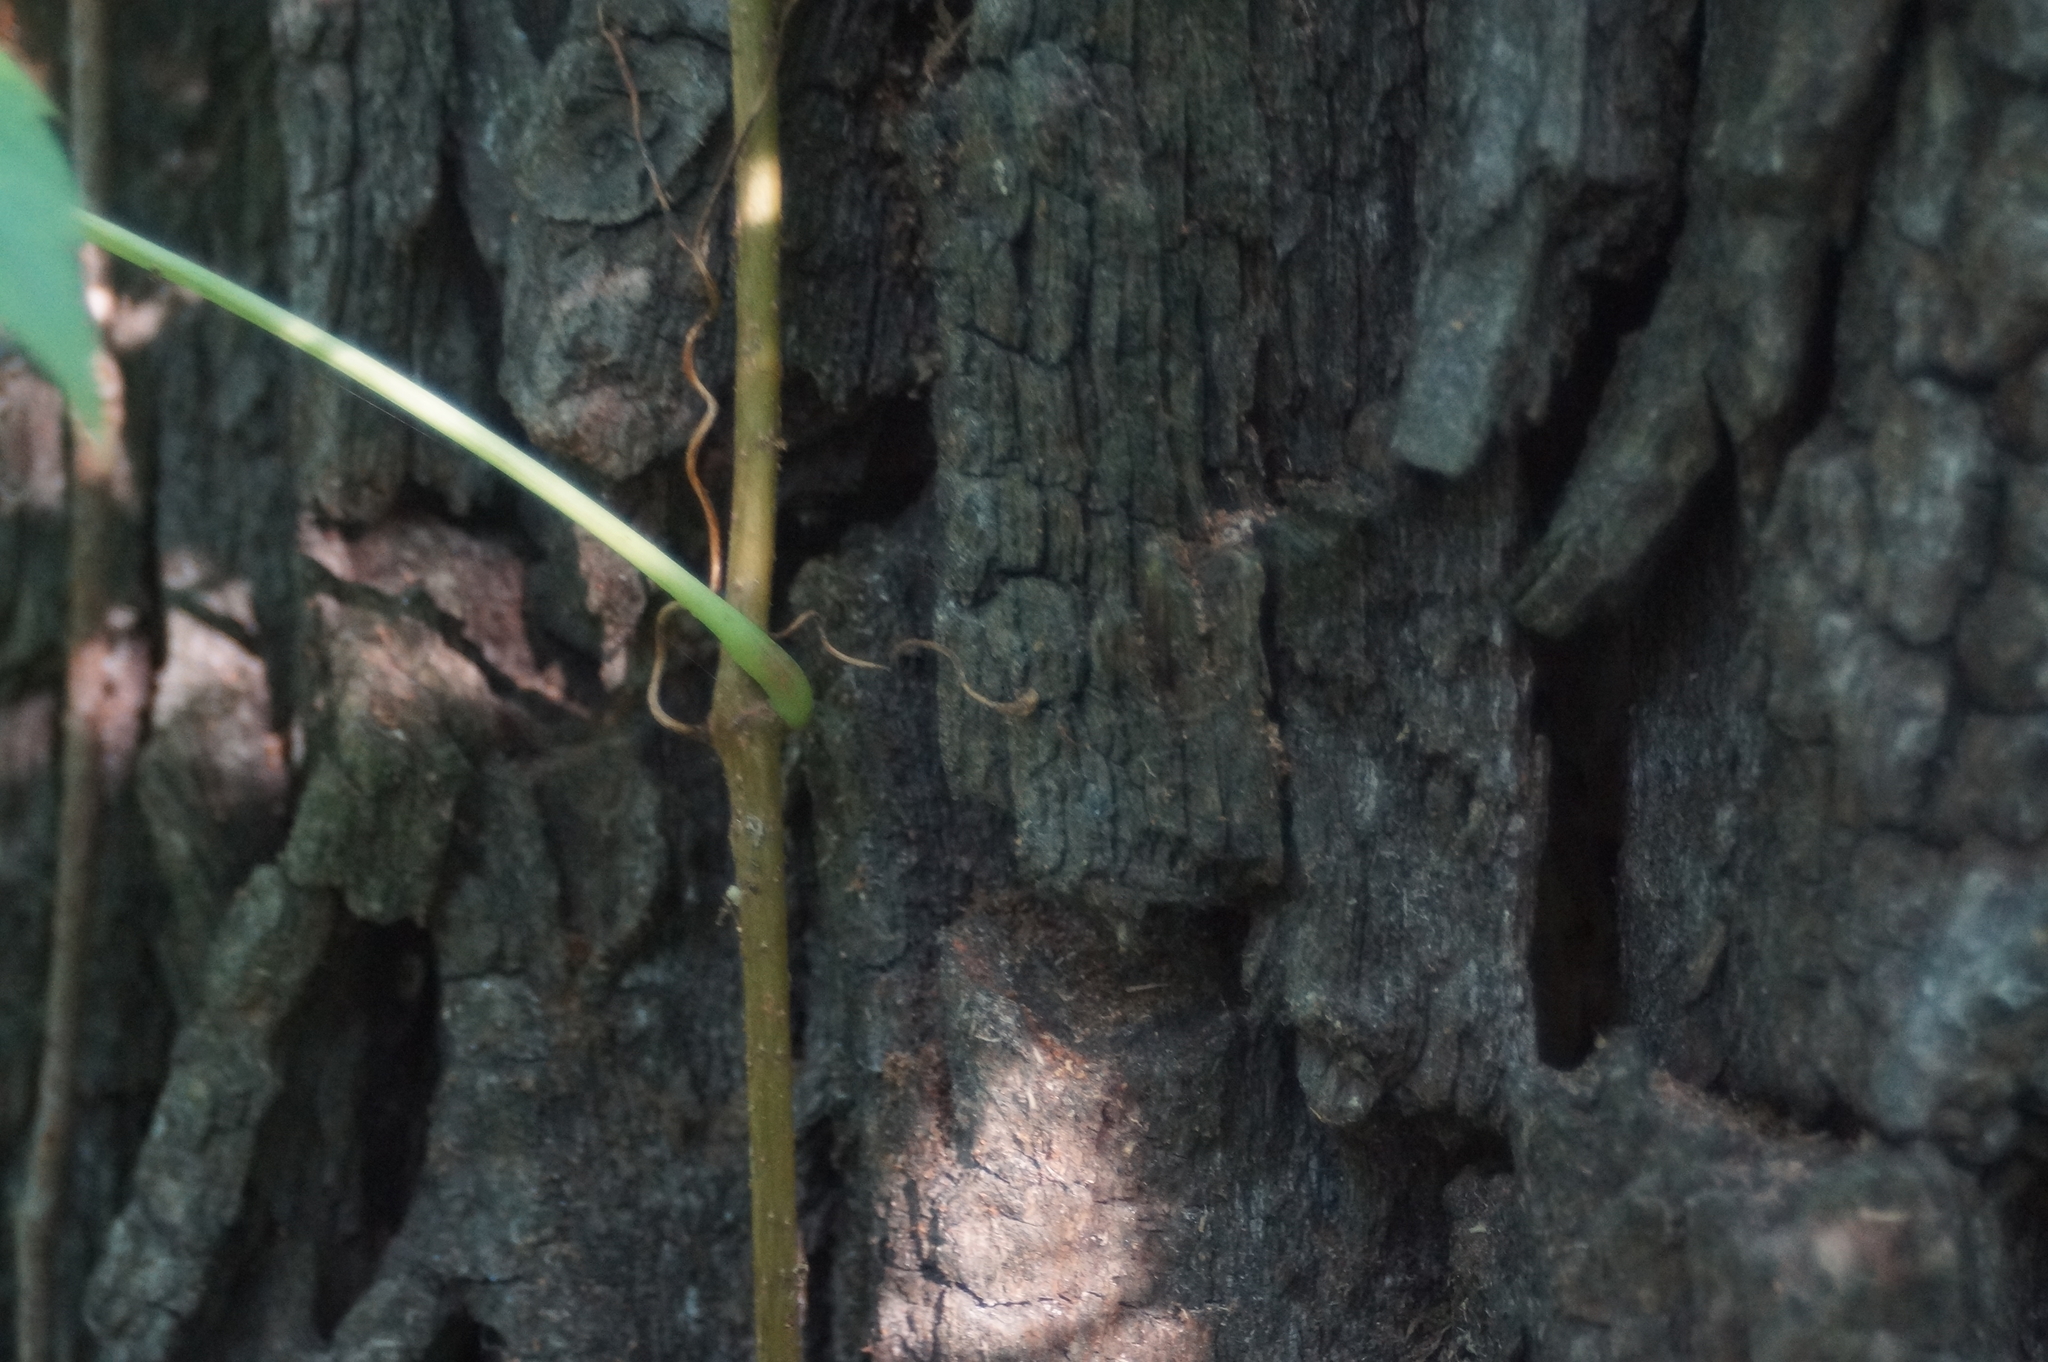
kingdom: Plantae
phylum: Tracheophyta
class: Magnoliopsida
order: Vitales
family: Vitaceae
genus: Parthenocissus
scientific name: Parthenocissus quinquefolia
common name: Virginia-creeper
